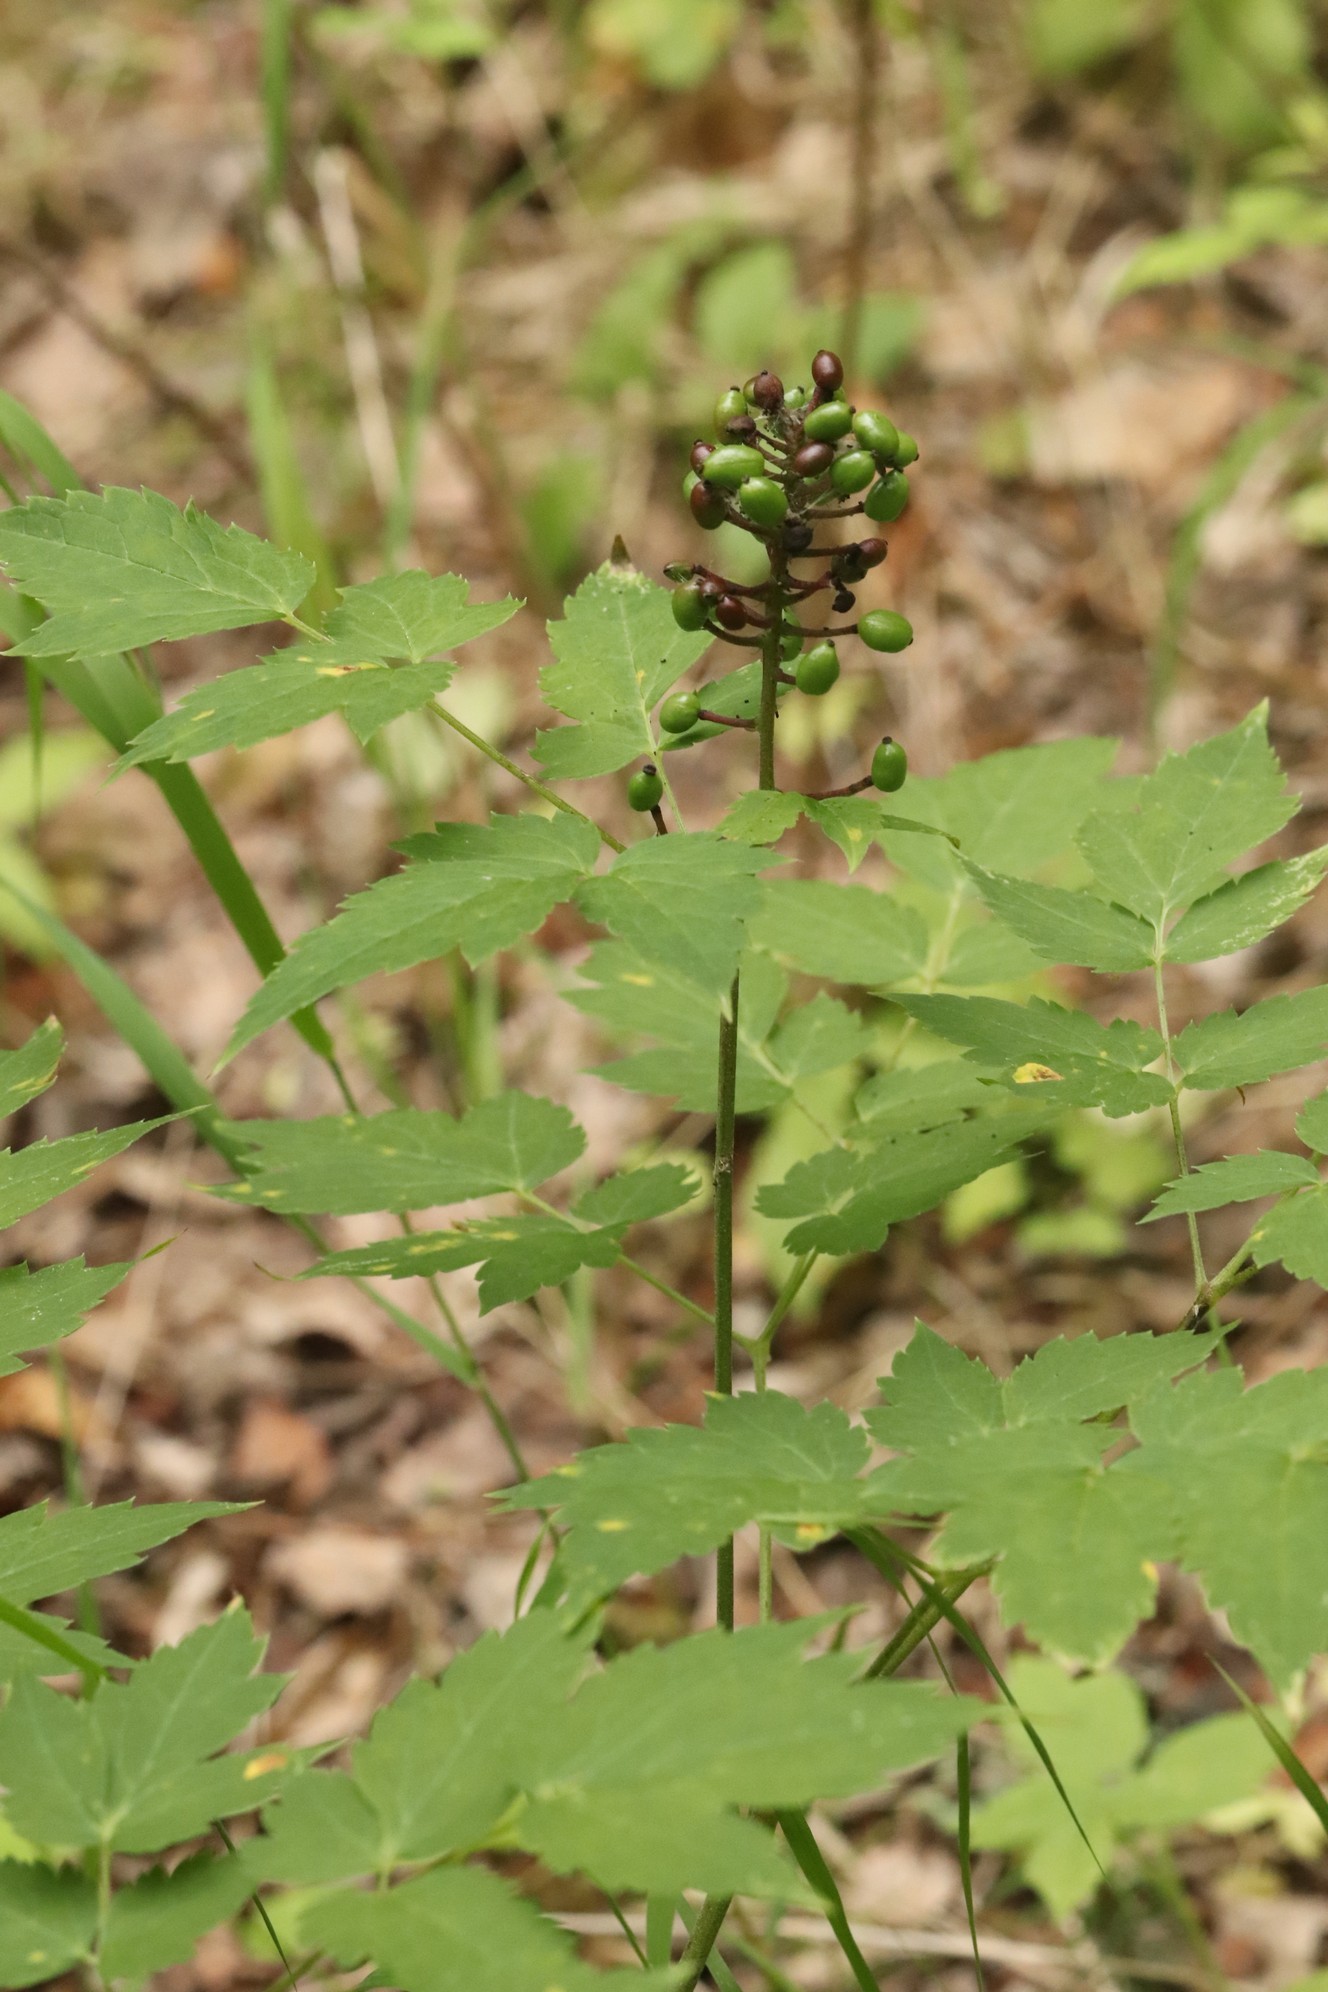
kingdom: Plantae
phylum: Tracheophyta
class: Magnoliopsida
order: Ranunculales
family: Ranunculaceae
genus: Actaea
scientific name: Actaea erythrocarpa
